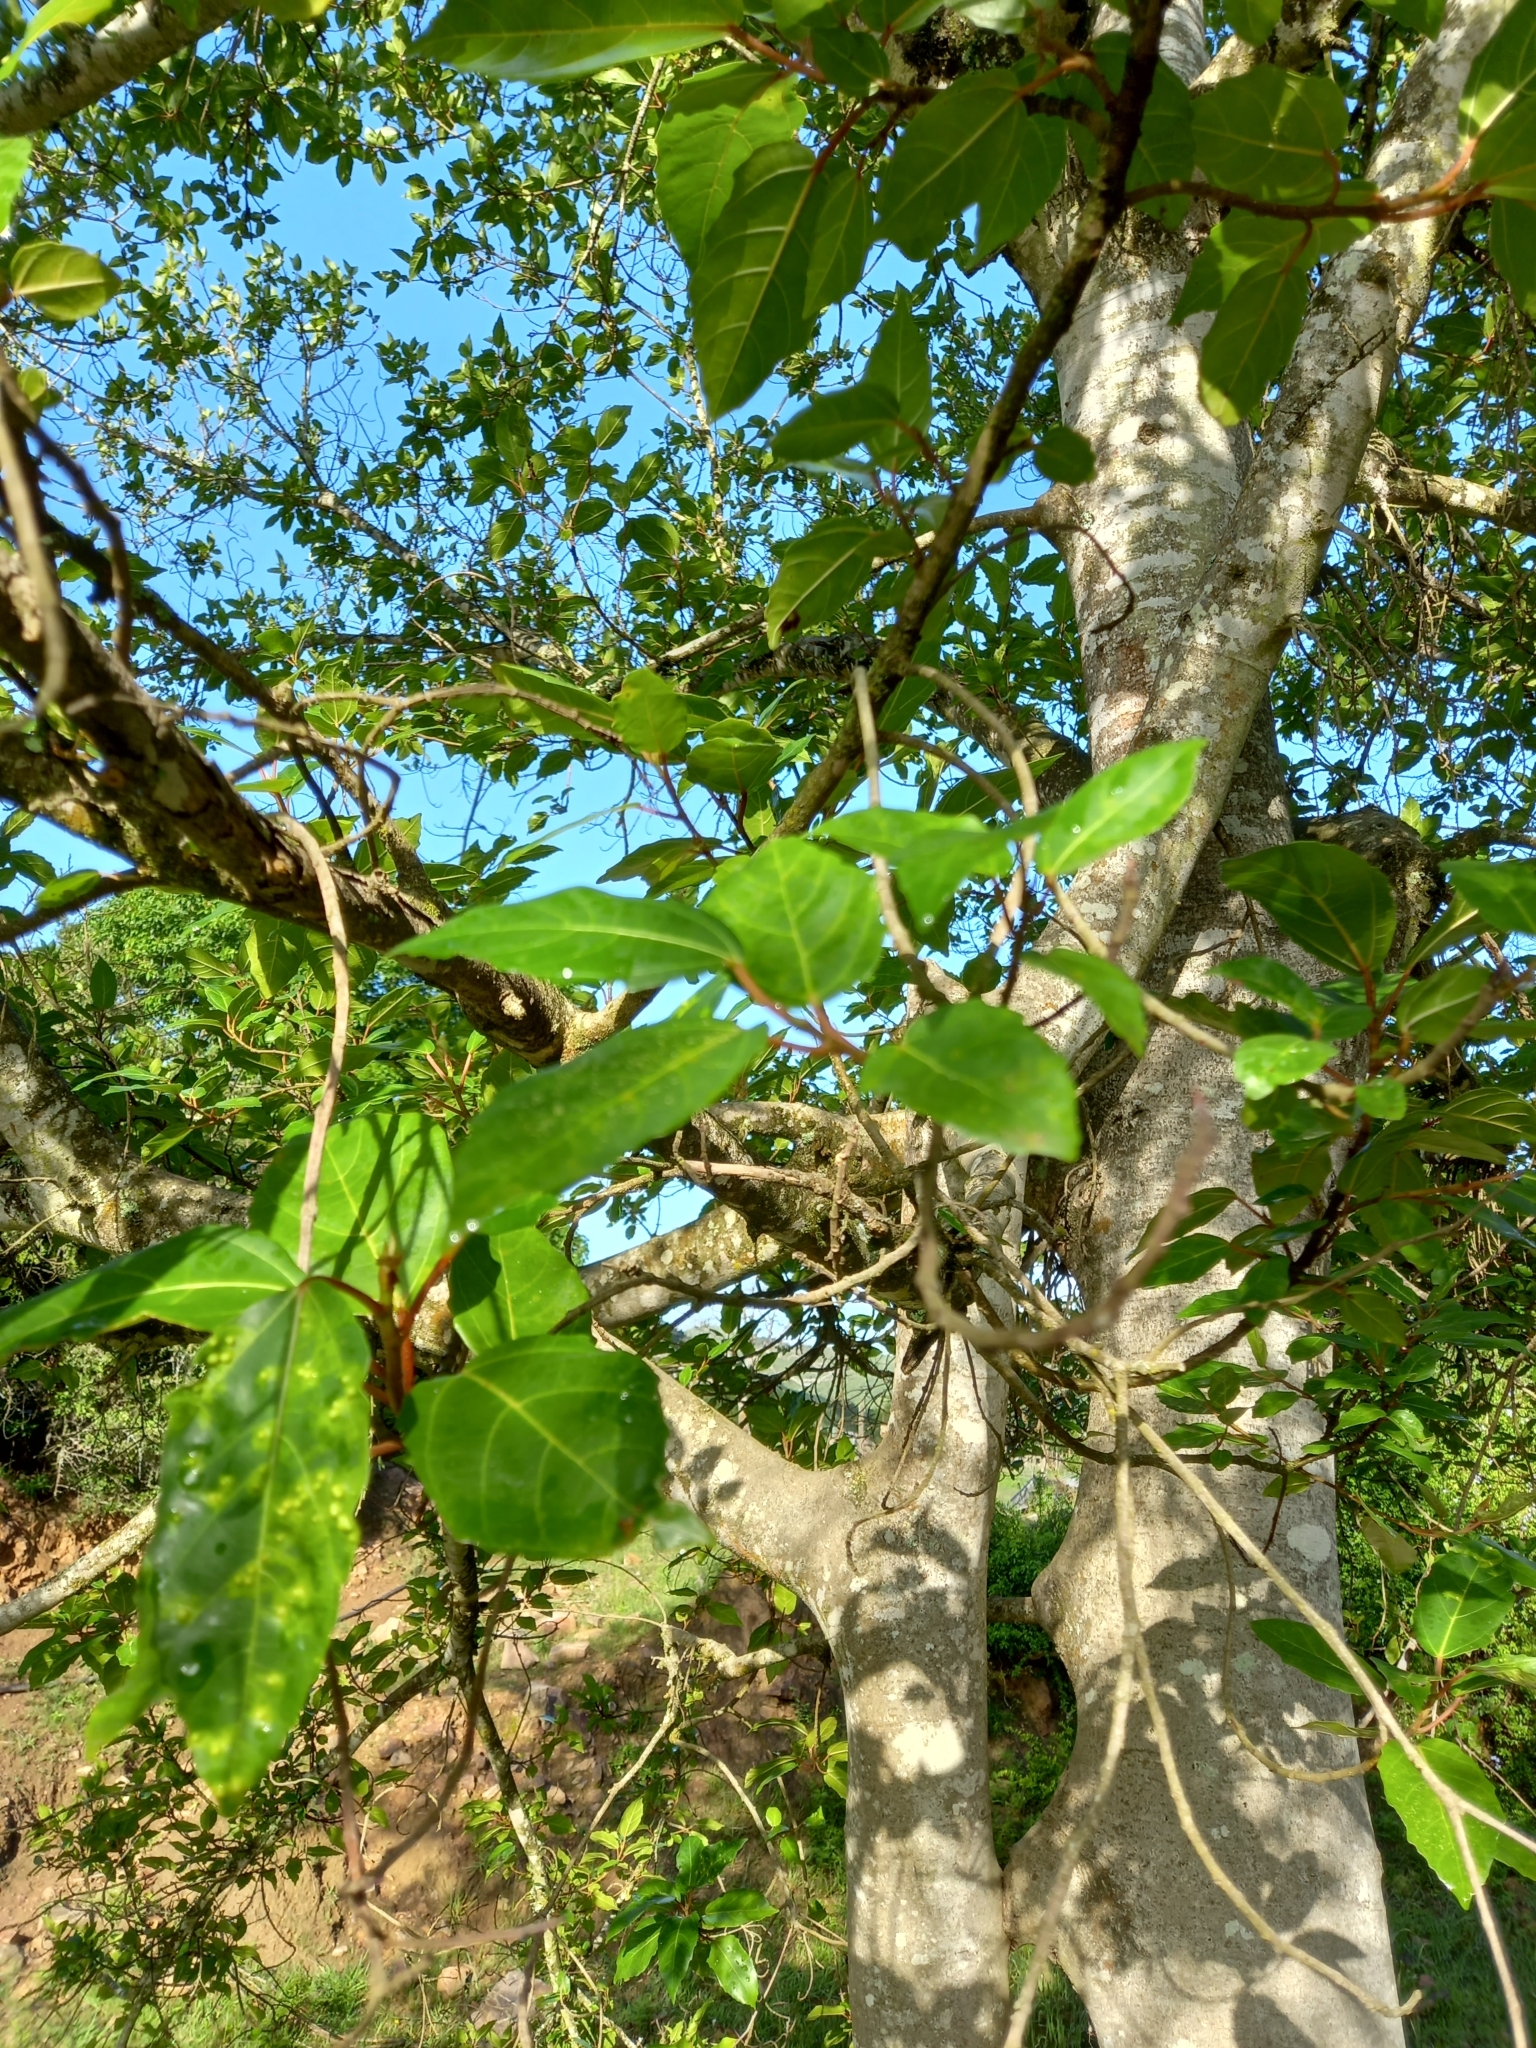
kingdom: Plantae
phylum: Tracheophyta
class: Magnoliopsida
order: Rosales
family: Moraceae
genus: Ficus
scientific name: Ficus sur
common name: Cape fig
